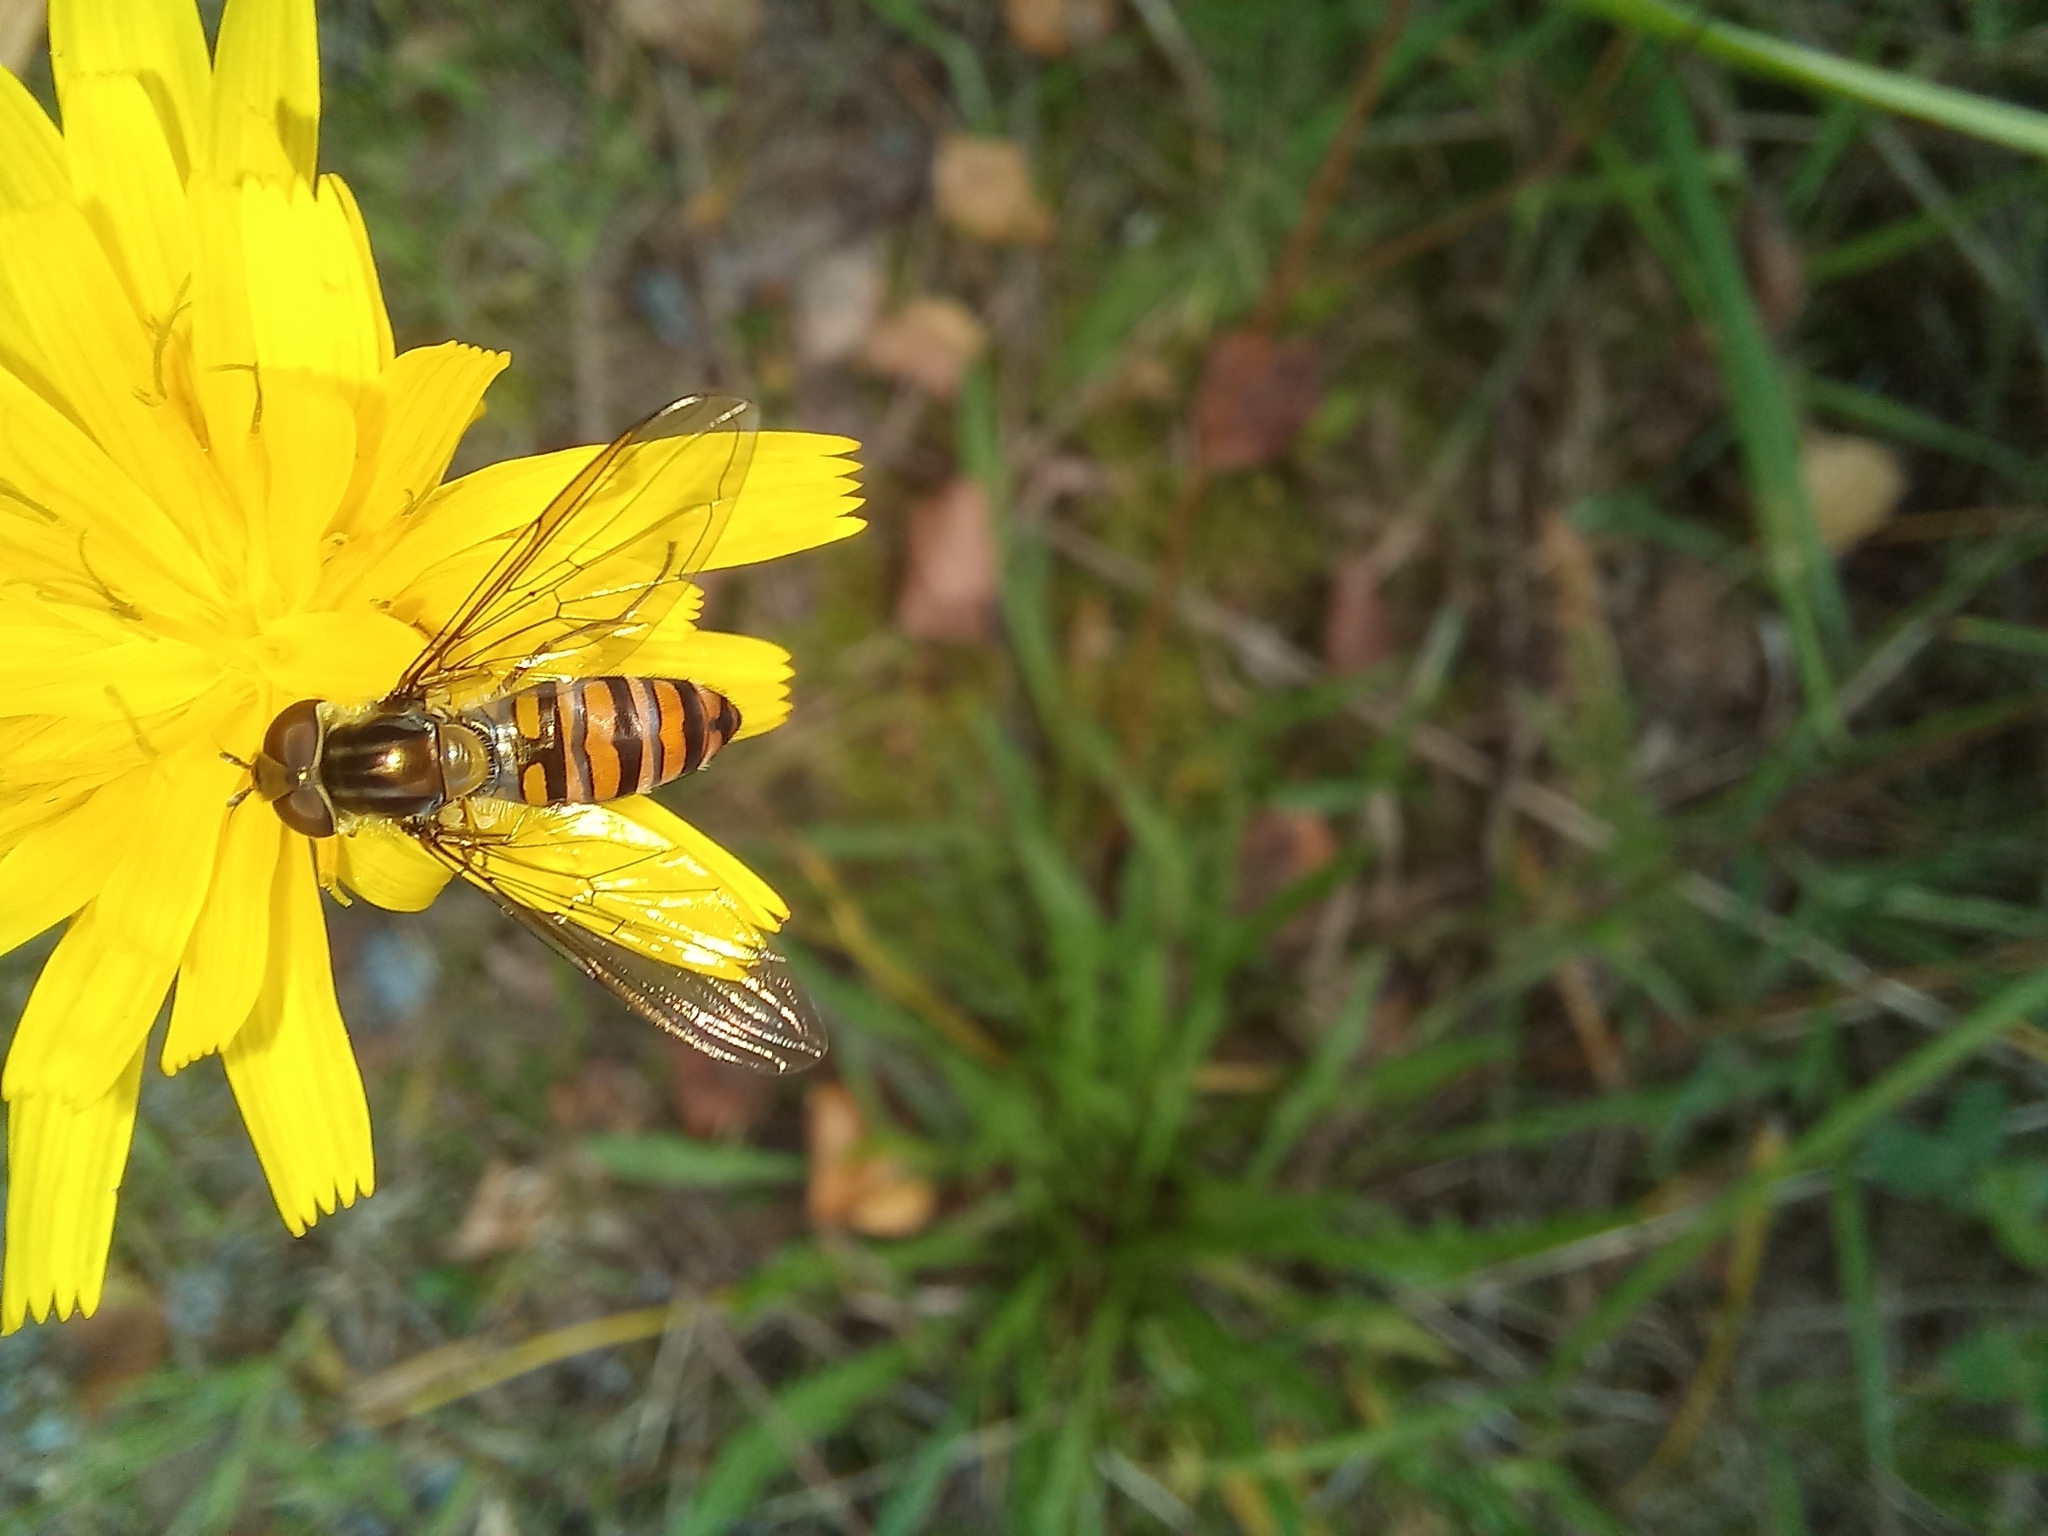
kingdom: Animalia
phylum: Arthropoda
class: Insecta
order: Diptera
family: Syrphidae
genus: Episyrphus
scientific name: Episyrphus balteatus
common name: Marmalade hoverfly
